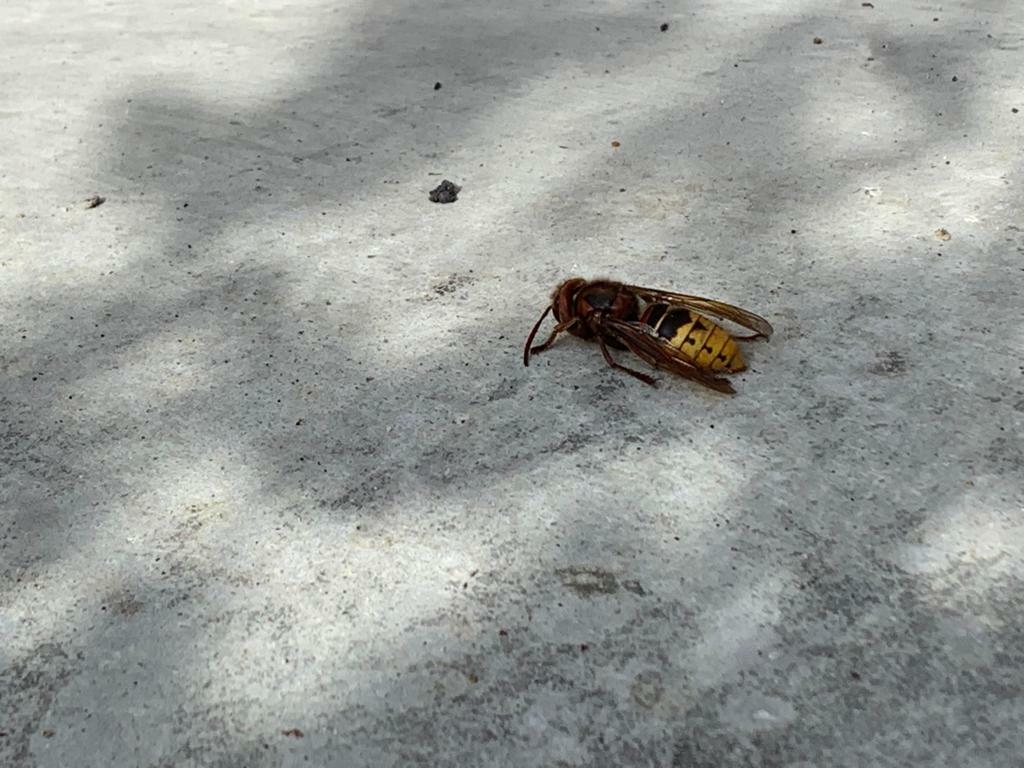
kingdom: Animalia
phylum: Arthropoda
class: Insecta
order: Hymenoptera
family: Vespidae
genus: Vespa
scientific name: Vespa crabro
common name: Hornet
